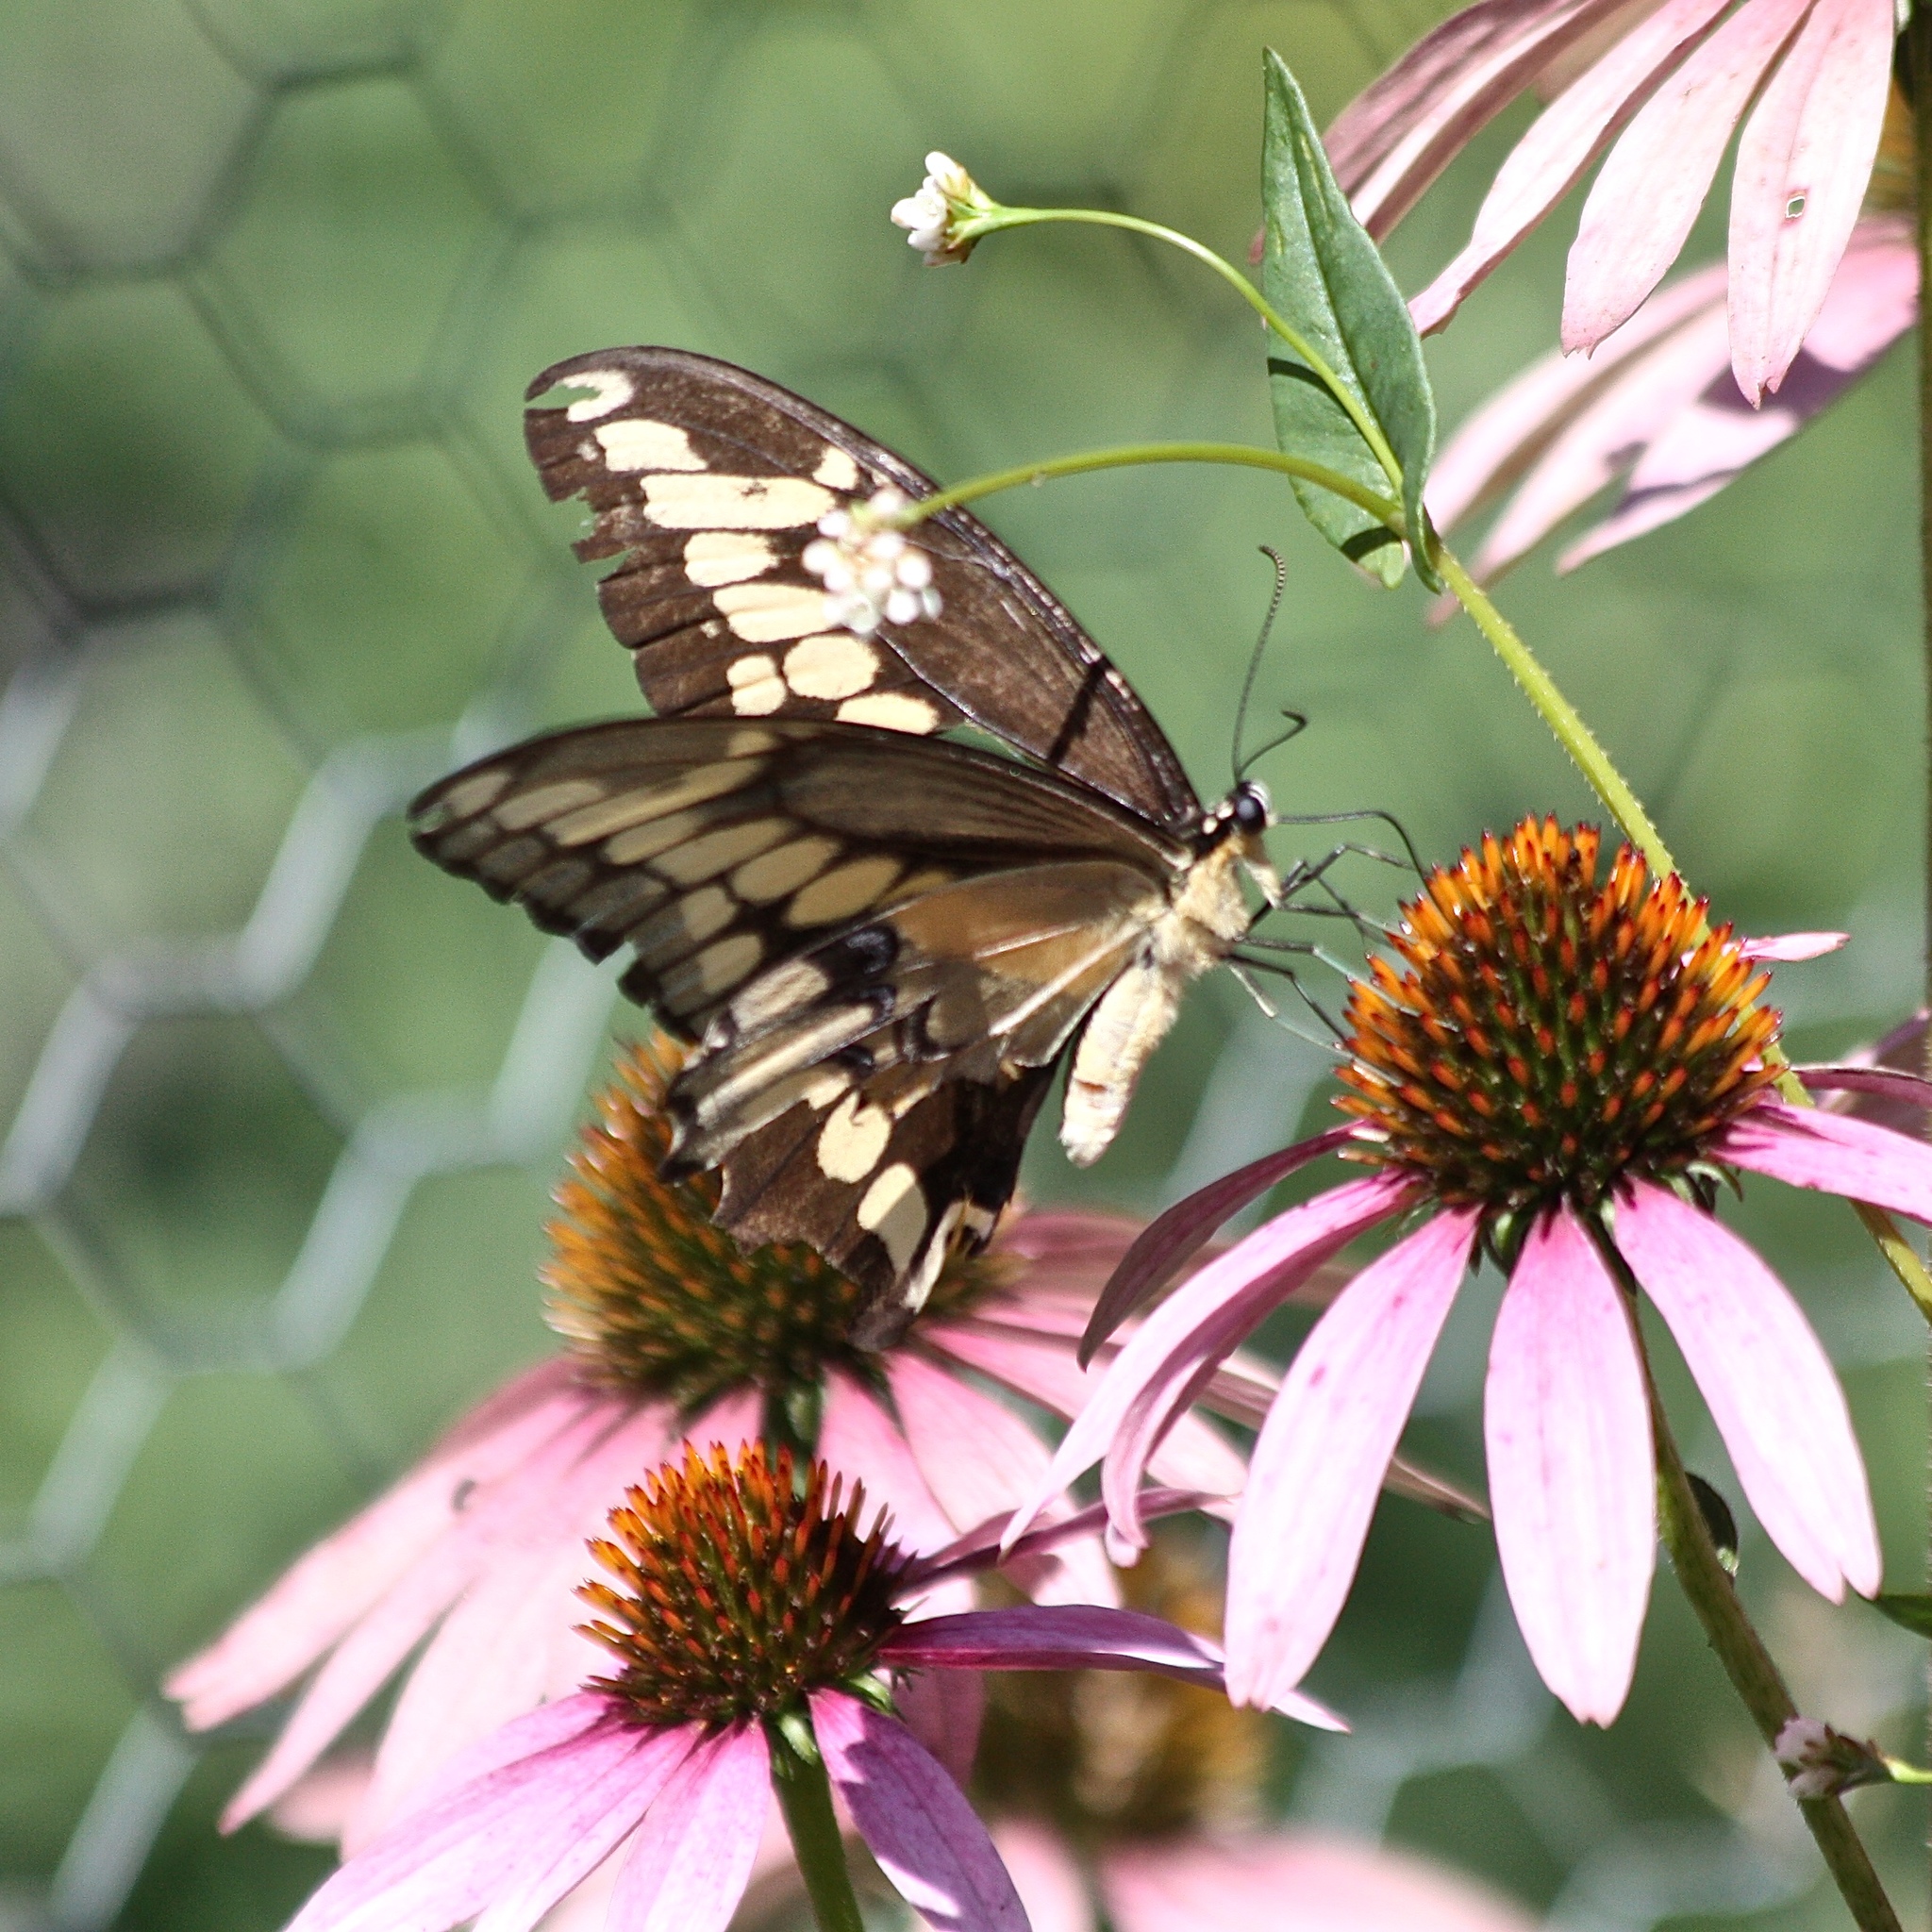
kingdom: Animalia
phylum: Arthropoda
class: Insecta
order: Lepidoptera
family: Papilionidae
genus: Papilio
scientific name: Papilio cresphontes
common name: Giant swallowtail
